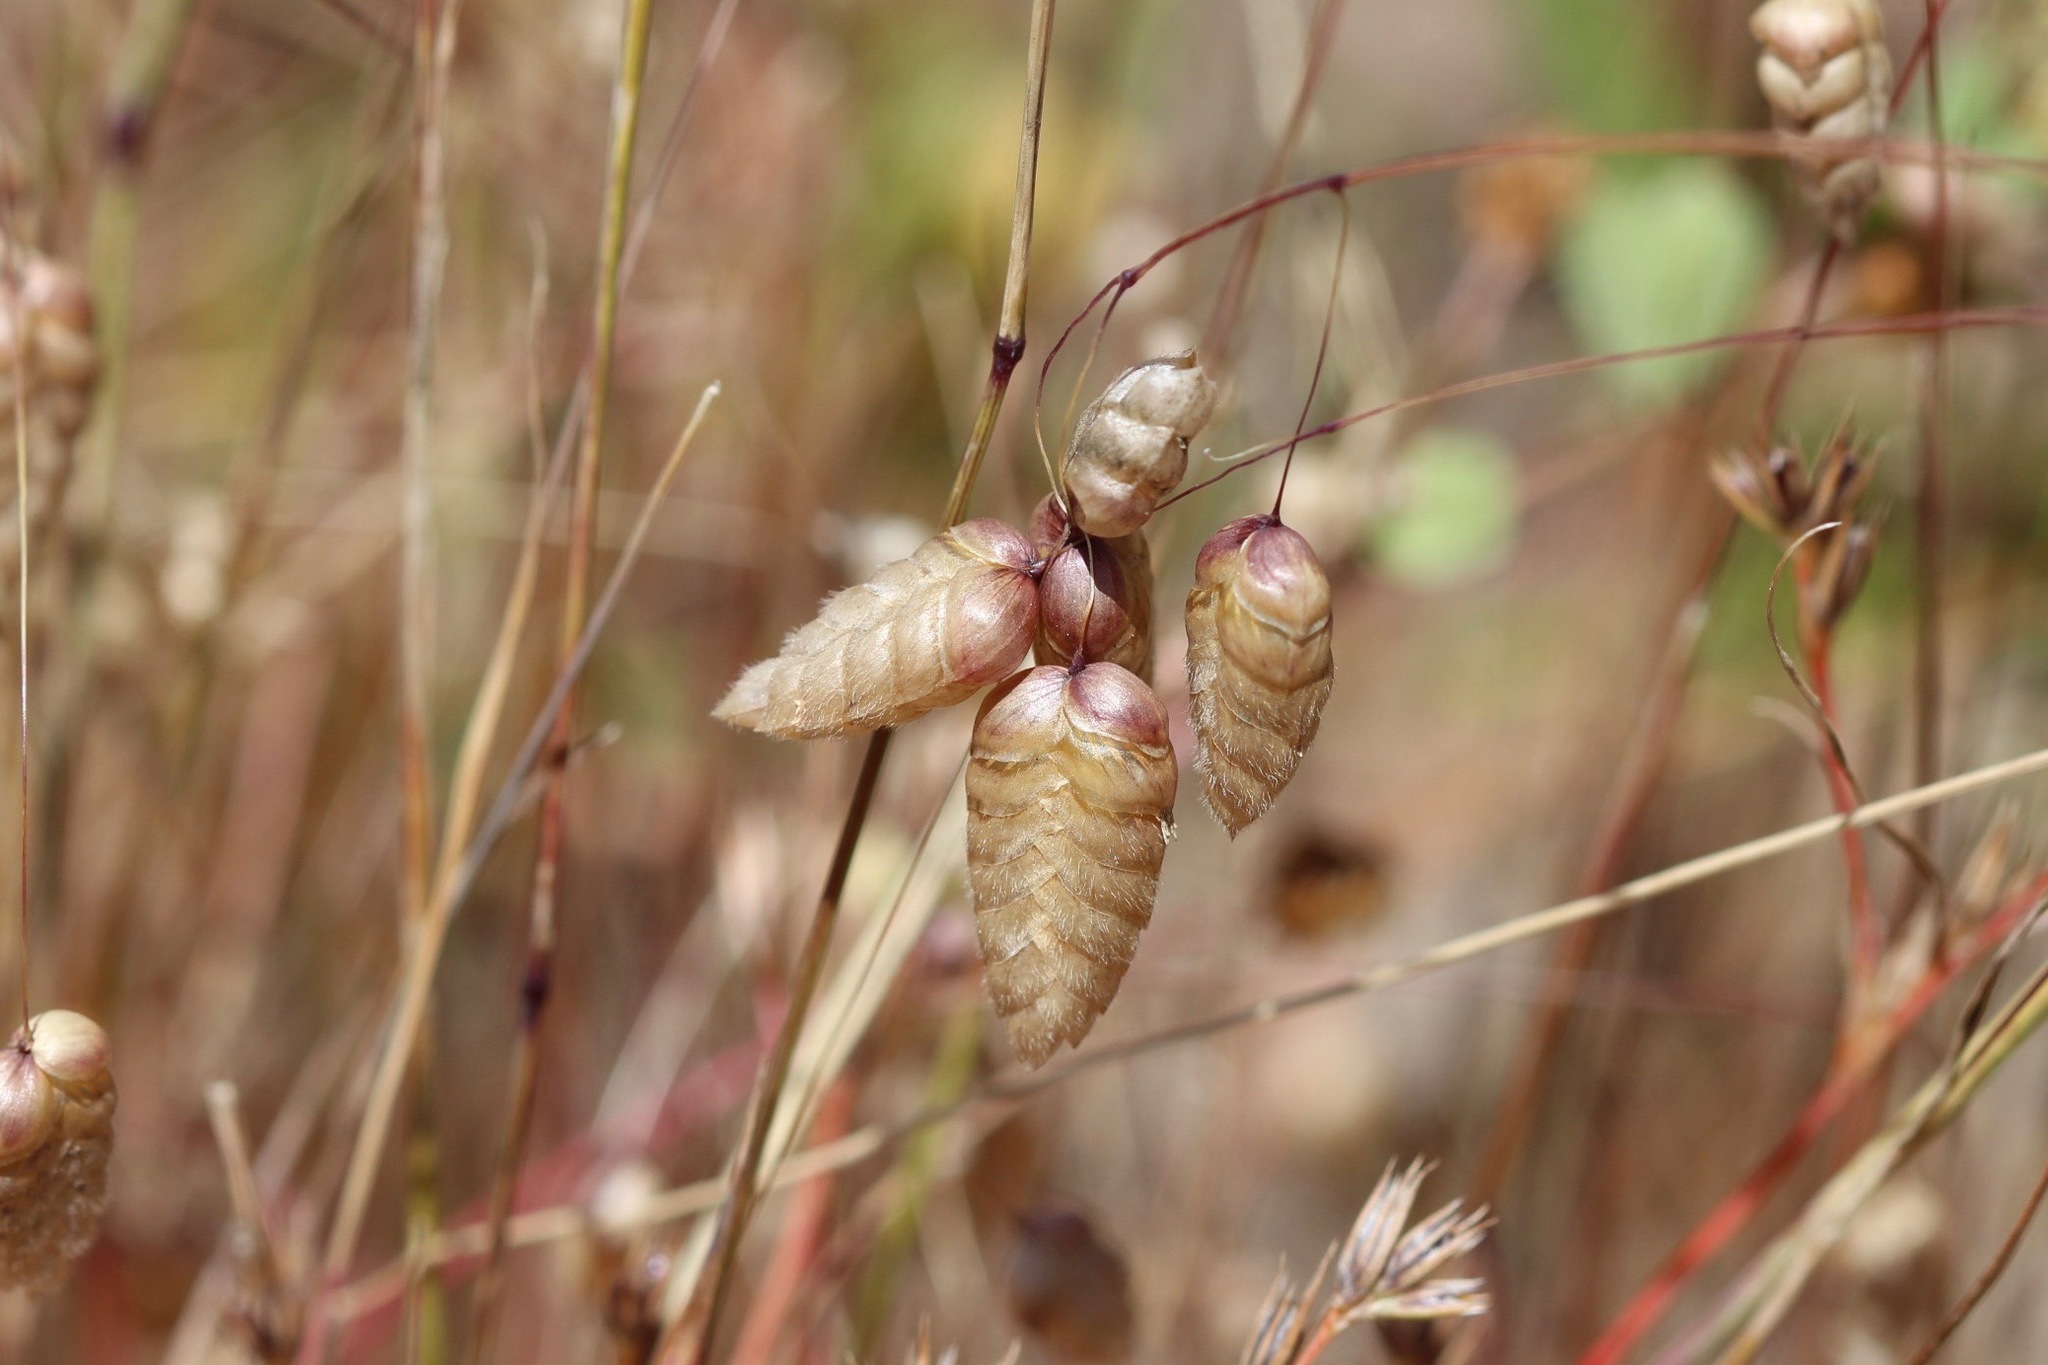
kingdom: Plantae
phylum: Tracheophyta
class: Liliopsida
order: Poales
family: Poaceae
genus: Briza
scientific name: Briza maxima
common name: Big quakinggrass
